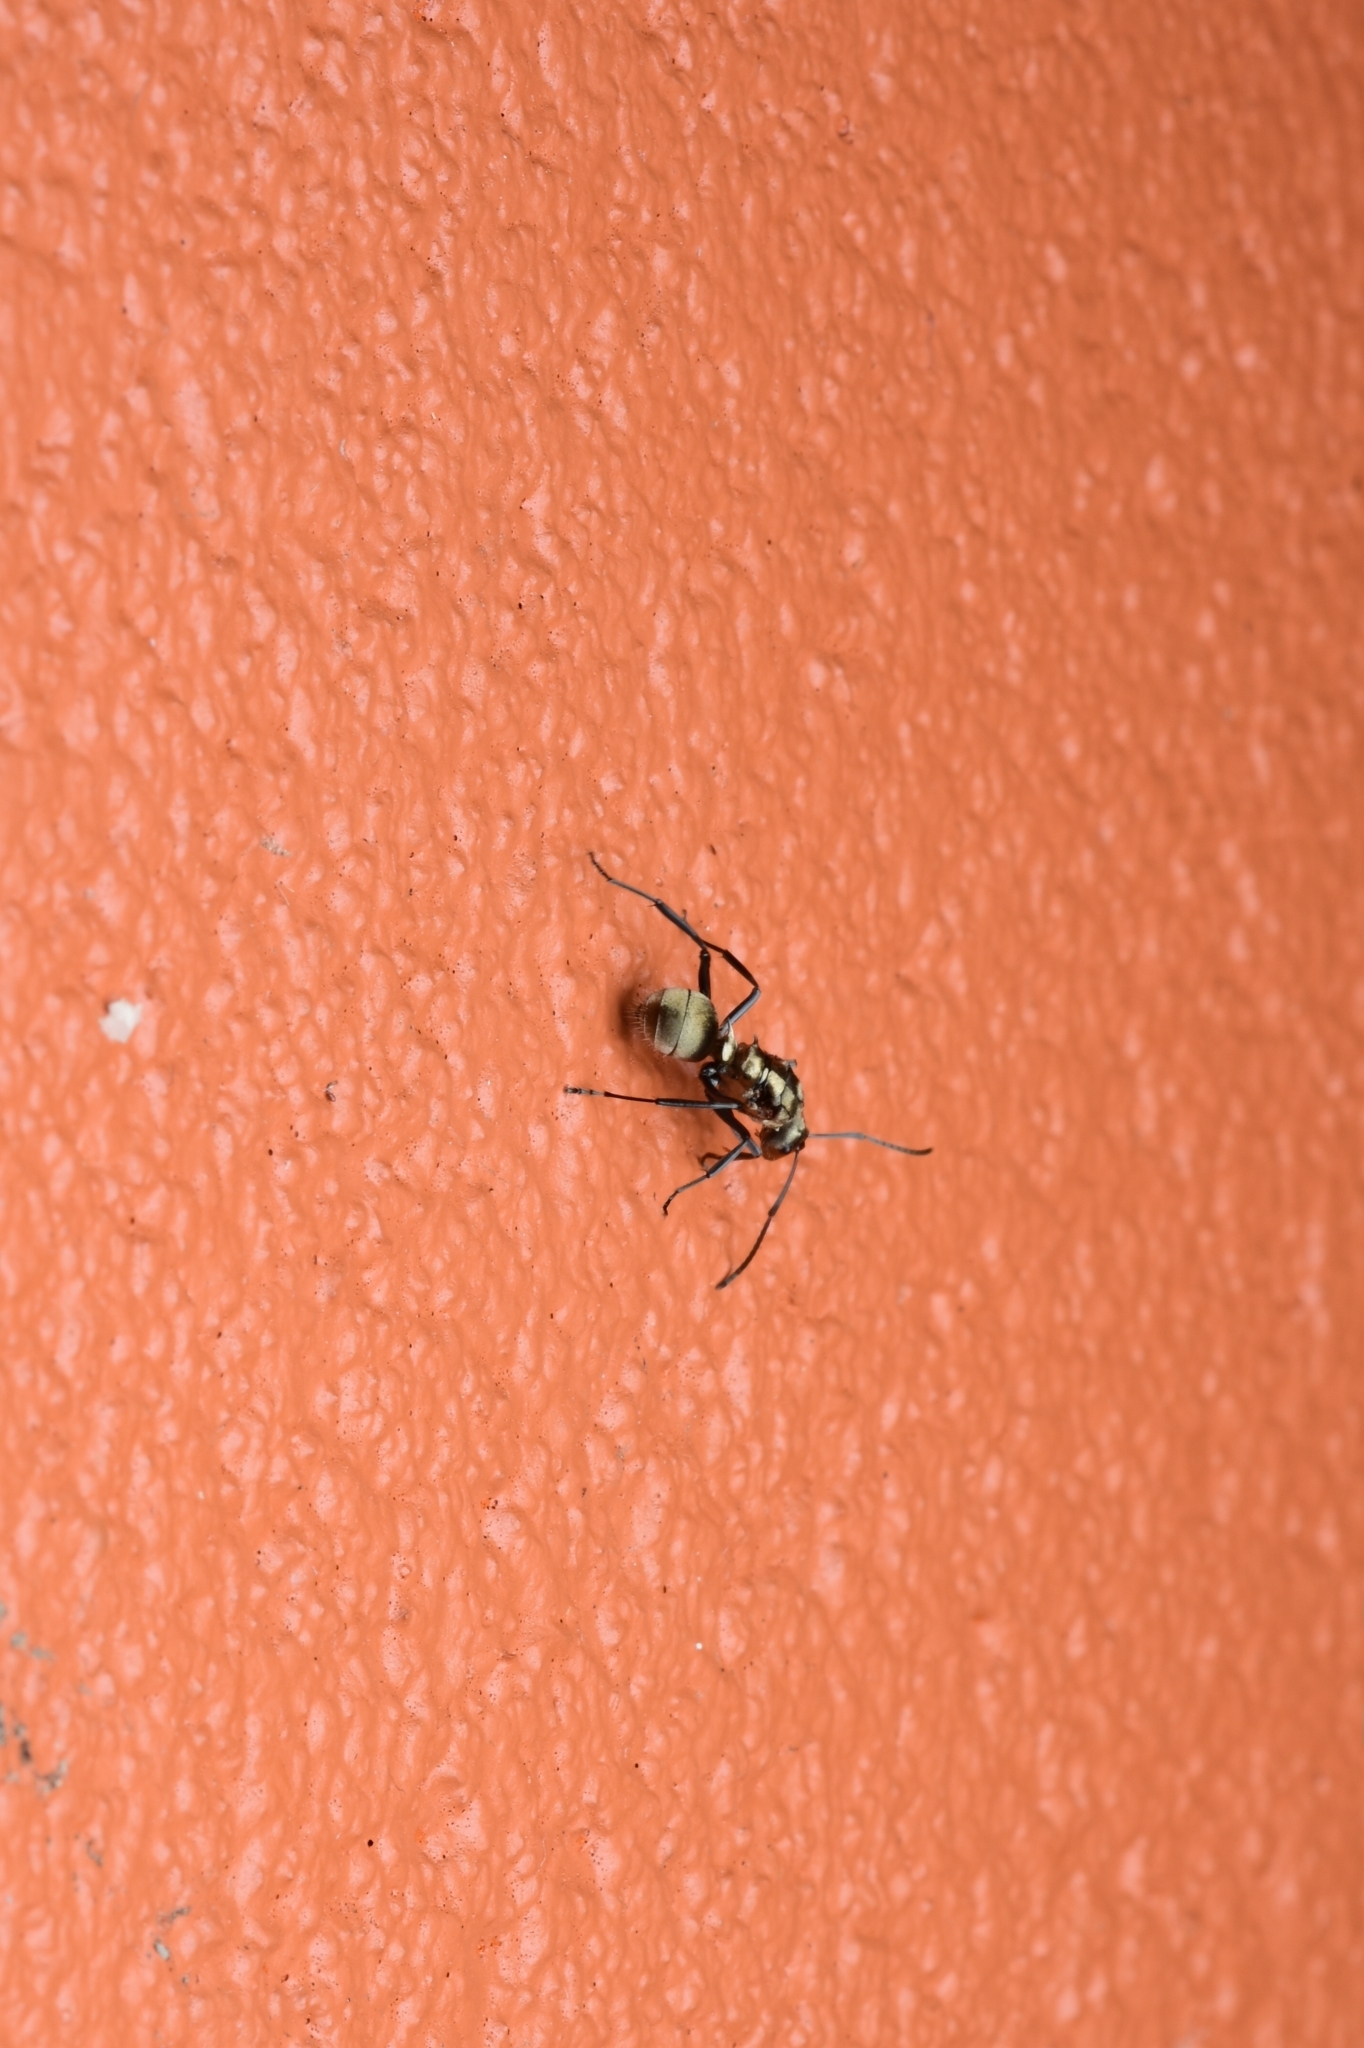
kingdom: Animalia
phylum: Arthropoda
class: Insecta
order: Hymenoptera
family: Formicidae
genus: Polyrhachis
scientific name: Polyrhachis cupreata
